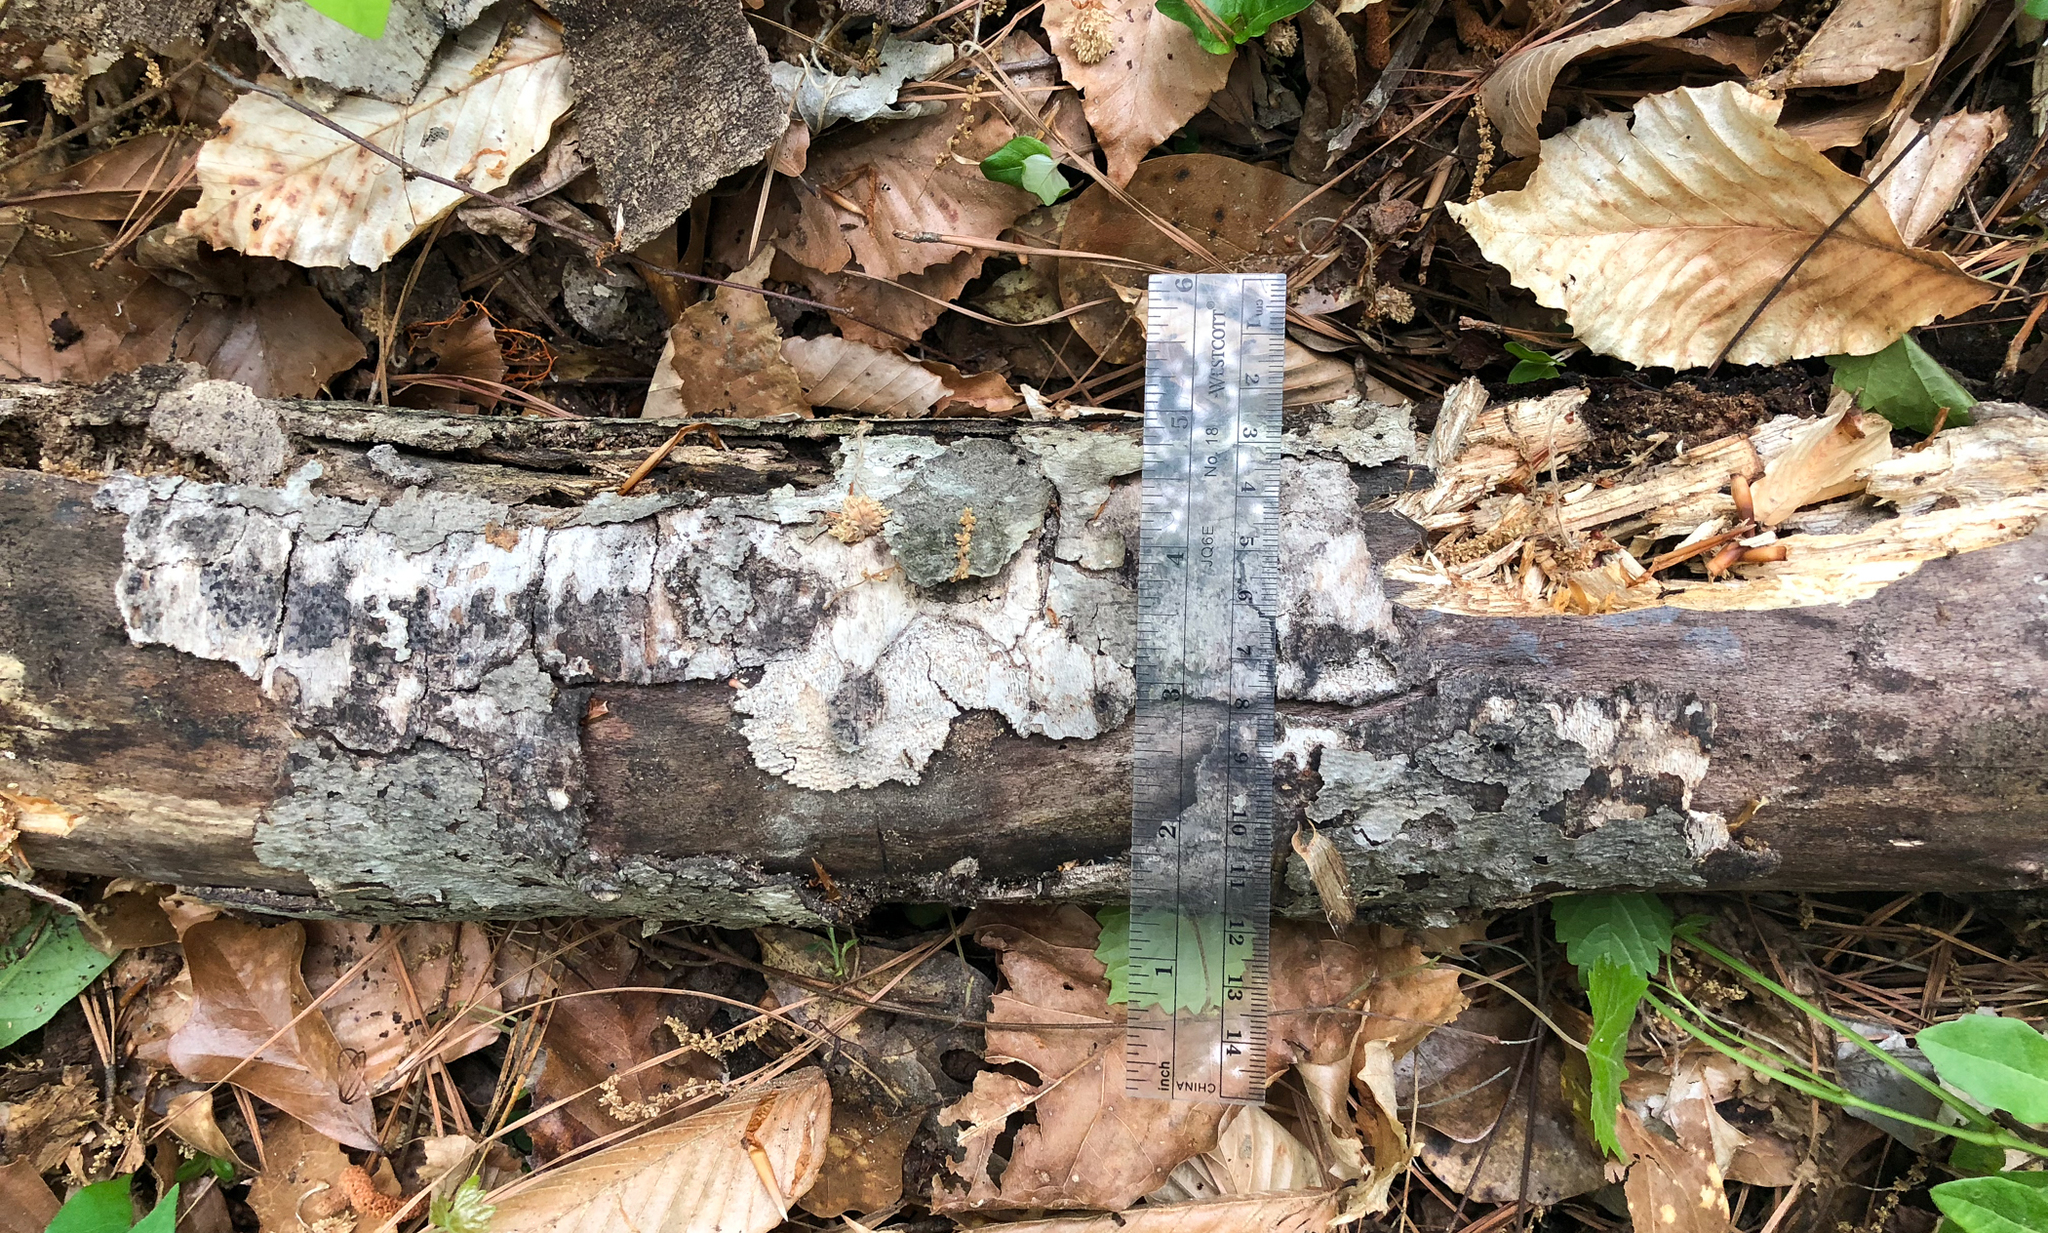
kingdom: Fungi
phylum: Basidiomycota
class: Agaricomycetes
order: Hymenochaetales
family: Schizoporaceae
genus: Xylodon
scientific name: Xylodon subflaviporus
